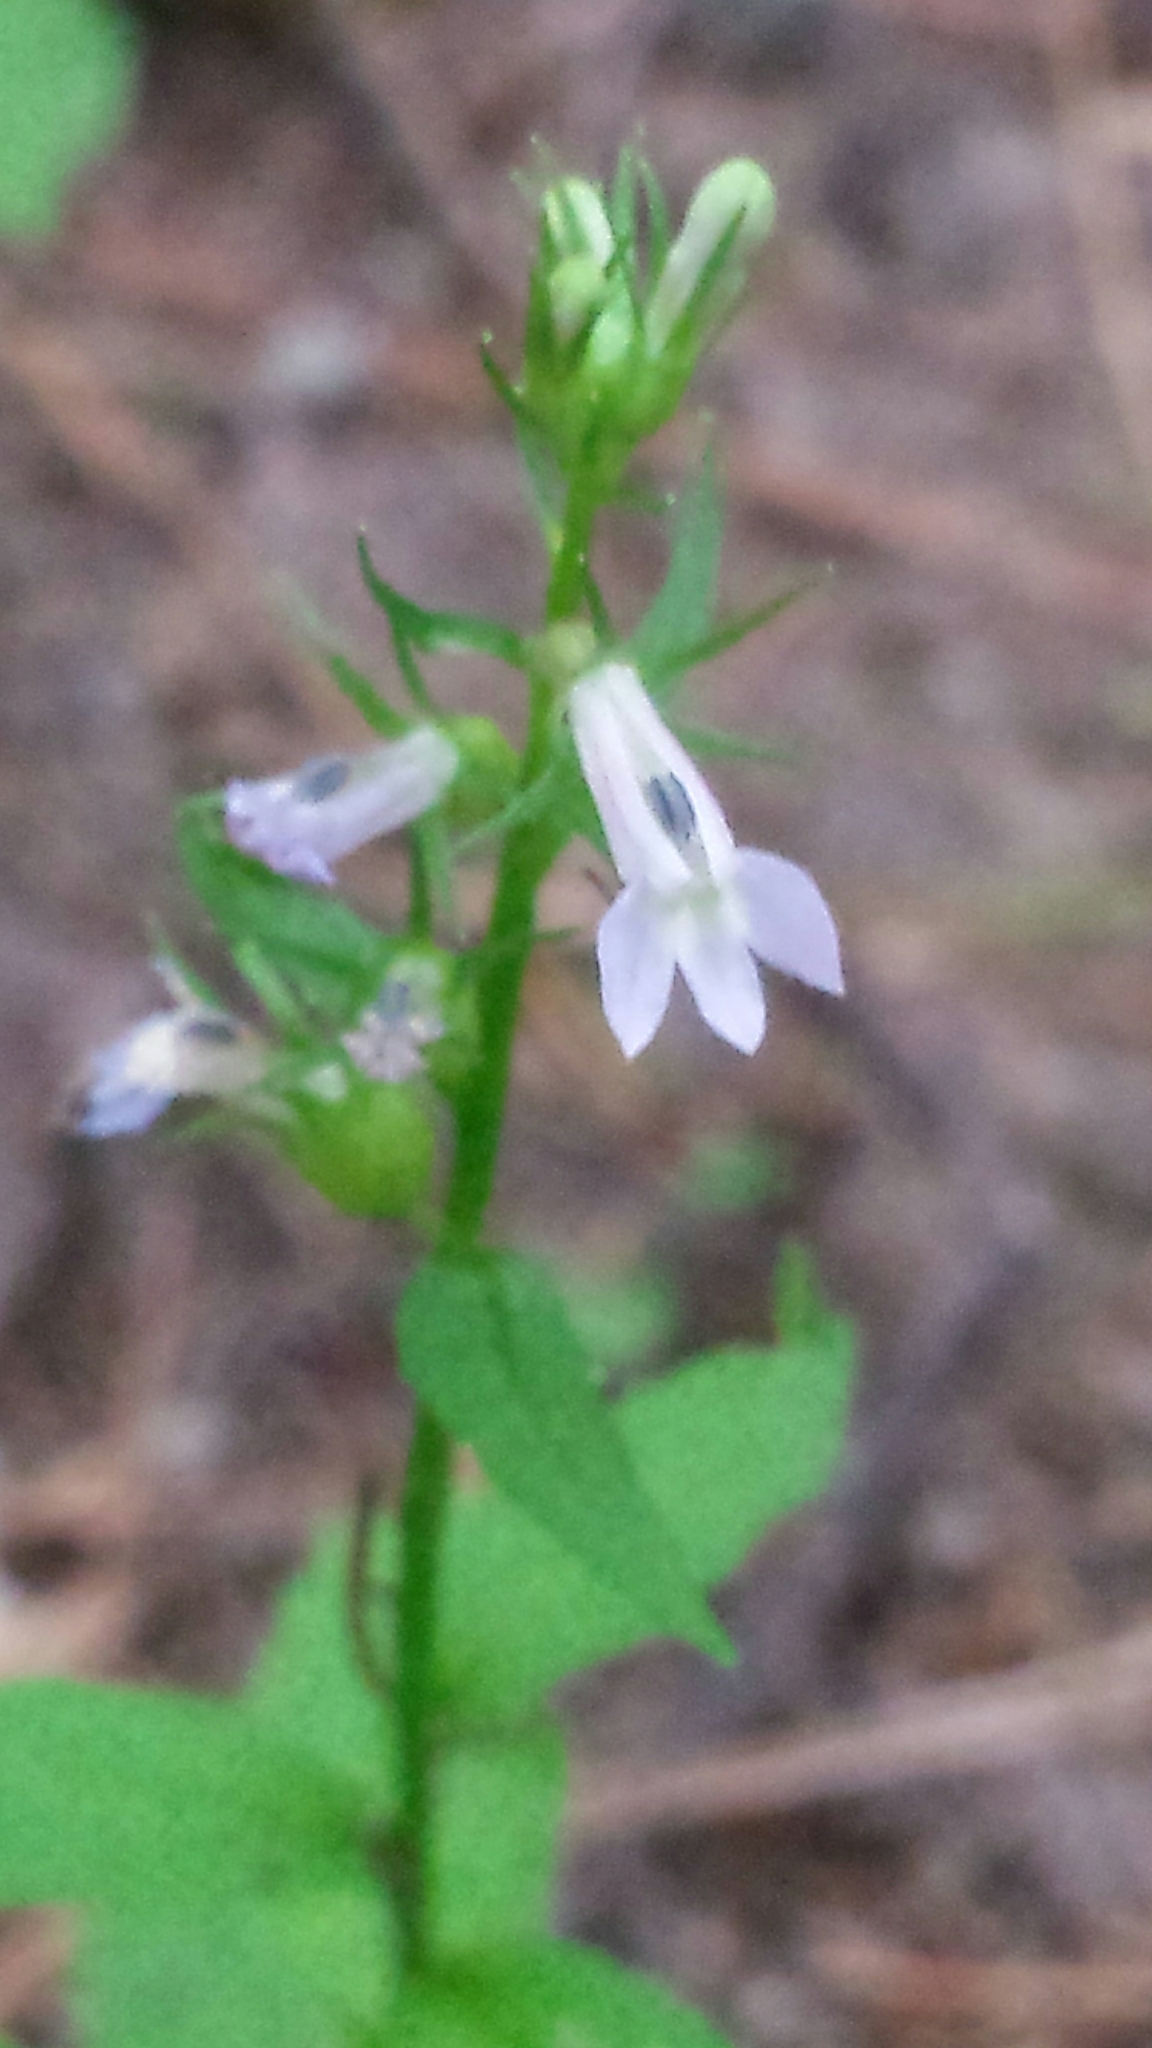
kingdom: Plantae
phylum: Tracheophyta
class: Magnoliopsida
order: Asterales
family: Campanulaceae
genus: Lobelia
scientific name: Lobelia inflata
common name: Indian tobacco
